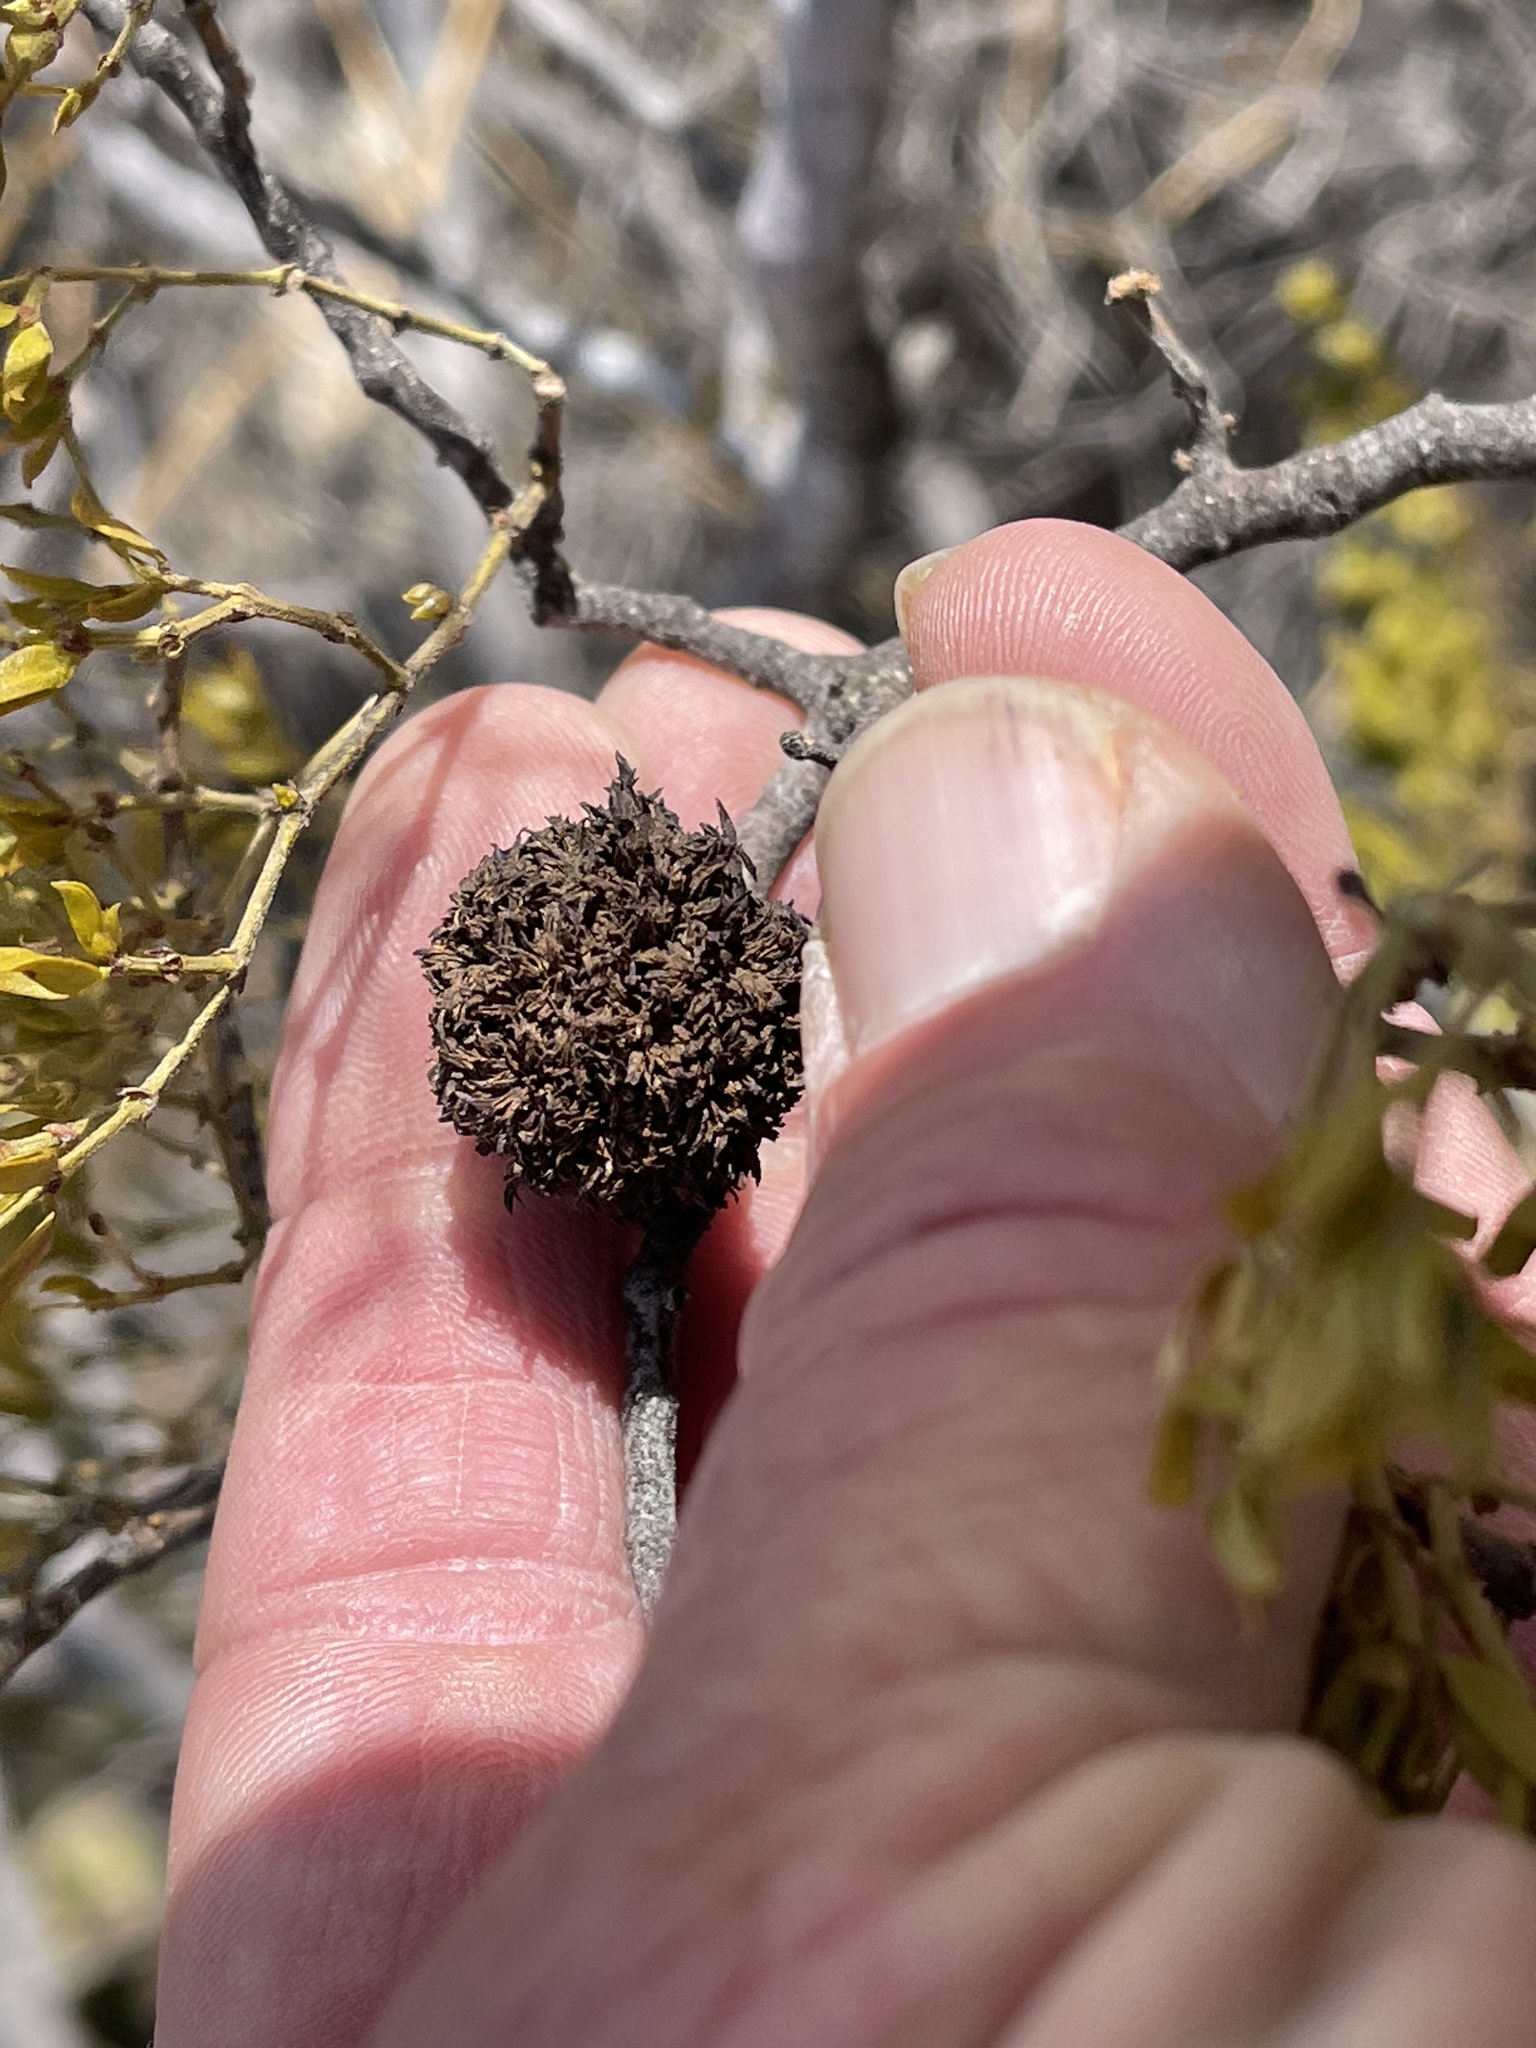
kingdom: Animalia
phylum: Arthropoda
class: Insecta
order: Diptera
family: Cecidomyiidae
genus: Asphondylia
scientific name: Asphondylia auripila
